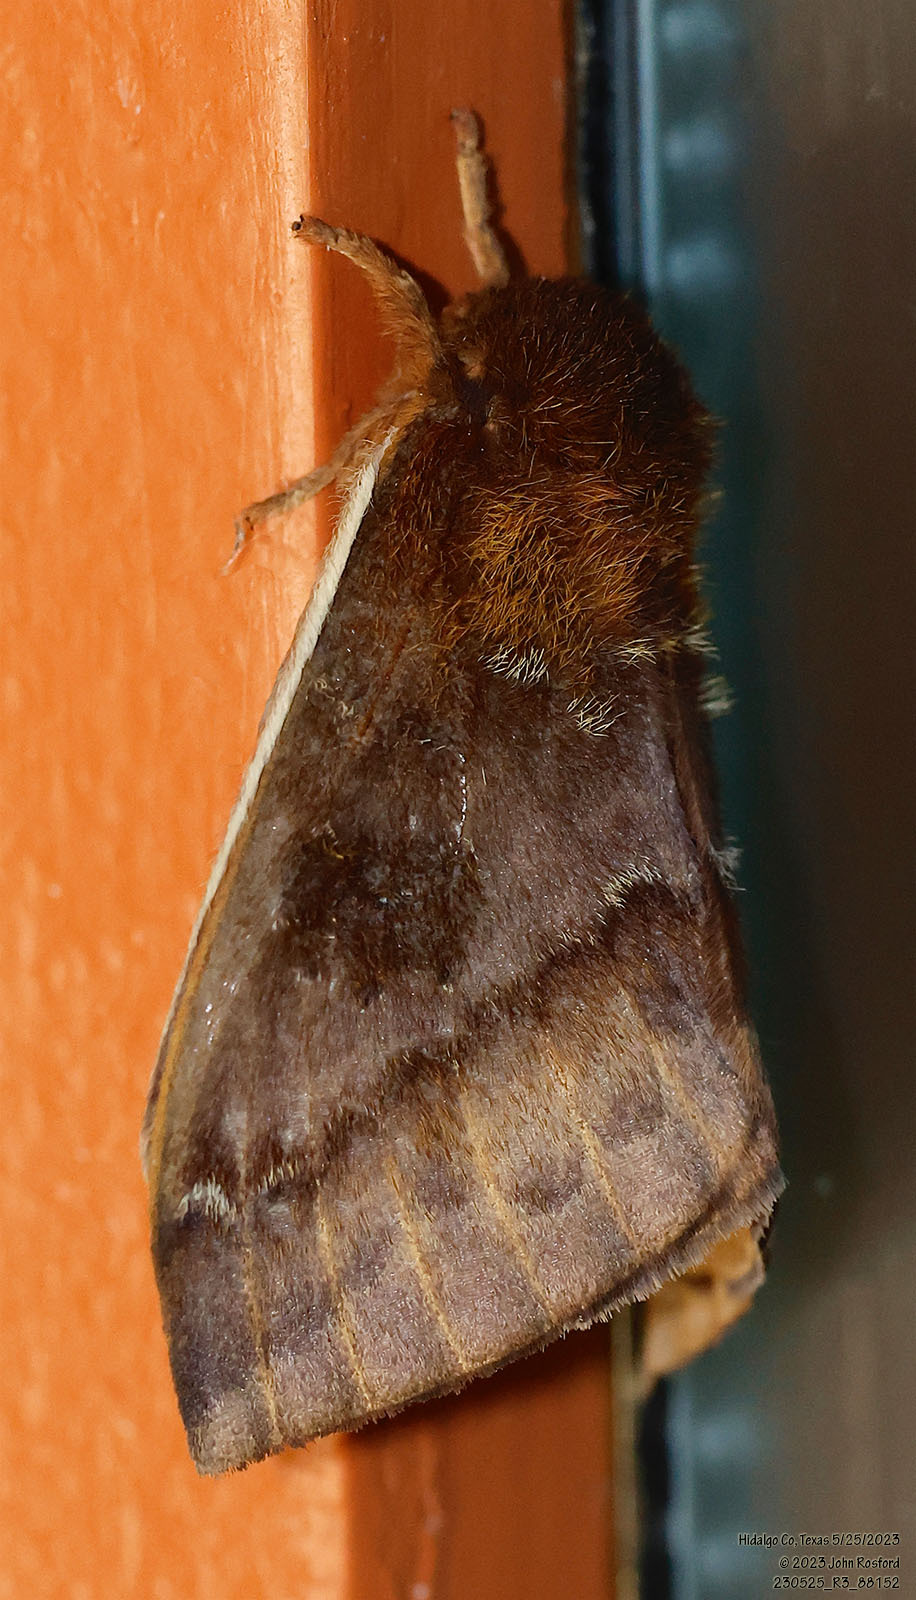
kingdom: Animalia
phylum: Arthropoda
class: Insecta
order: Lepidoptera
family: Saturniidae
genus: Automeris
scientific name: Automeris io
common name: Io moth
